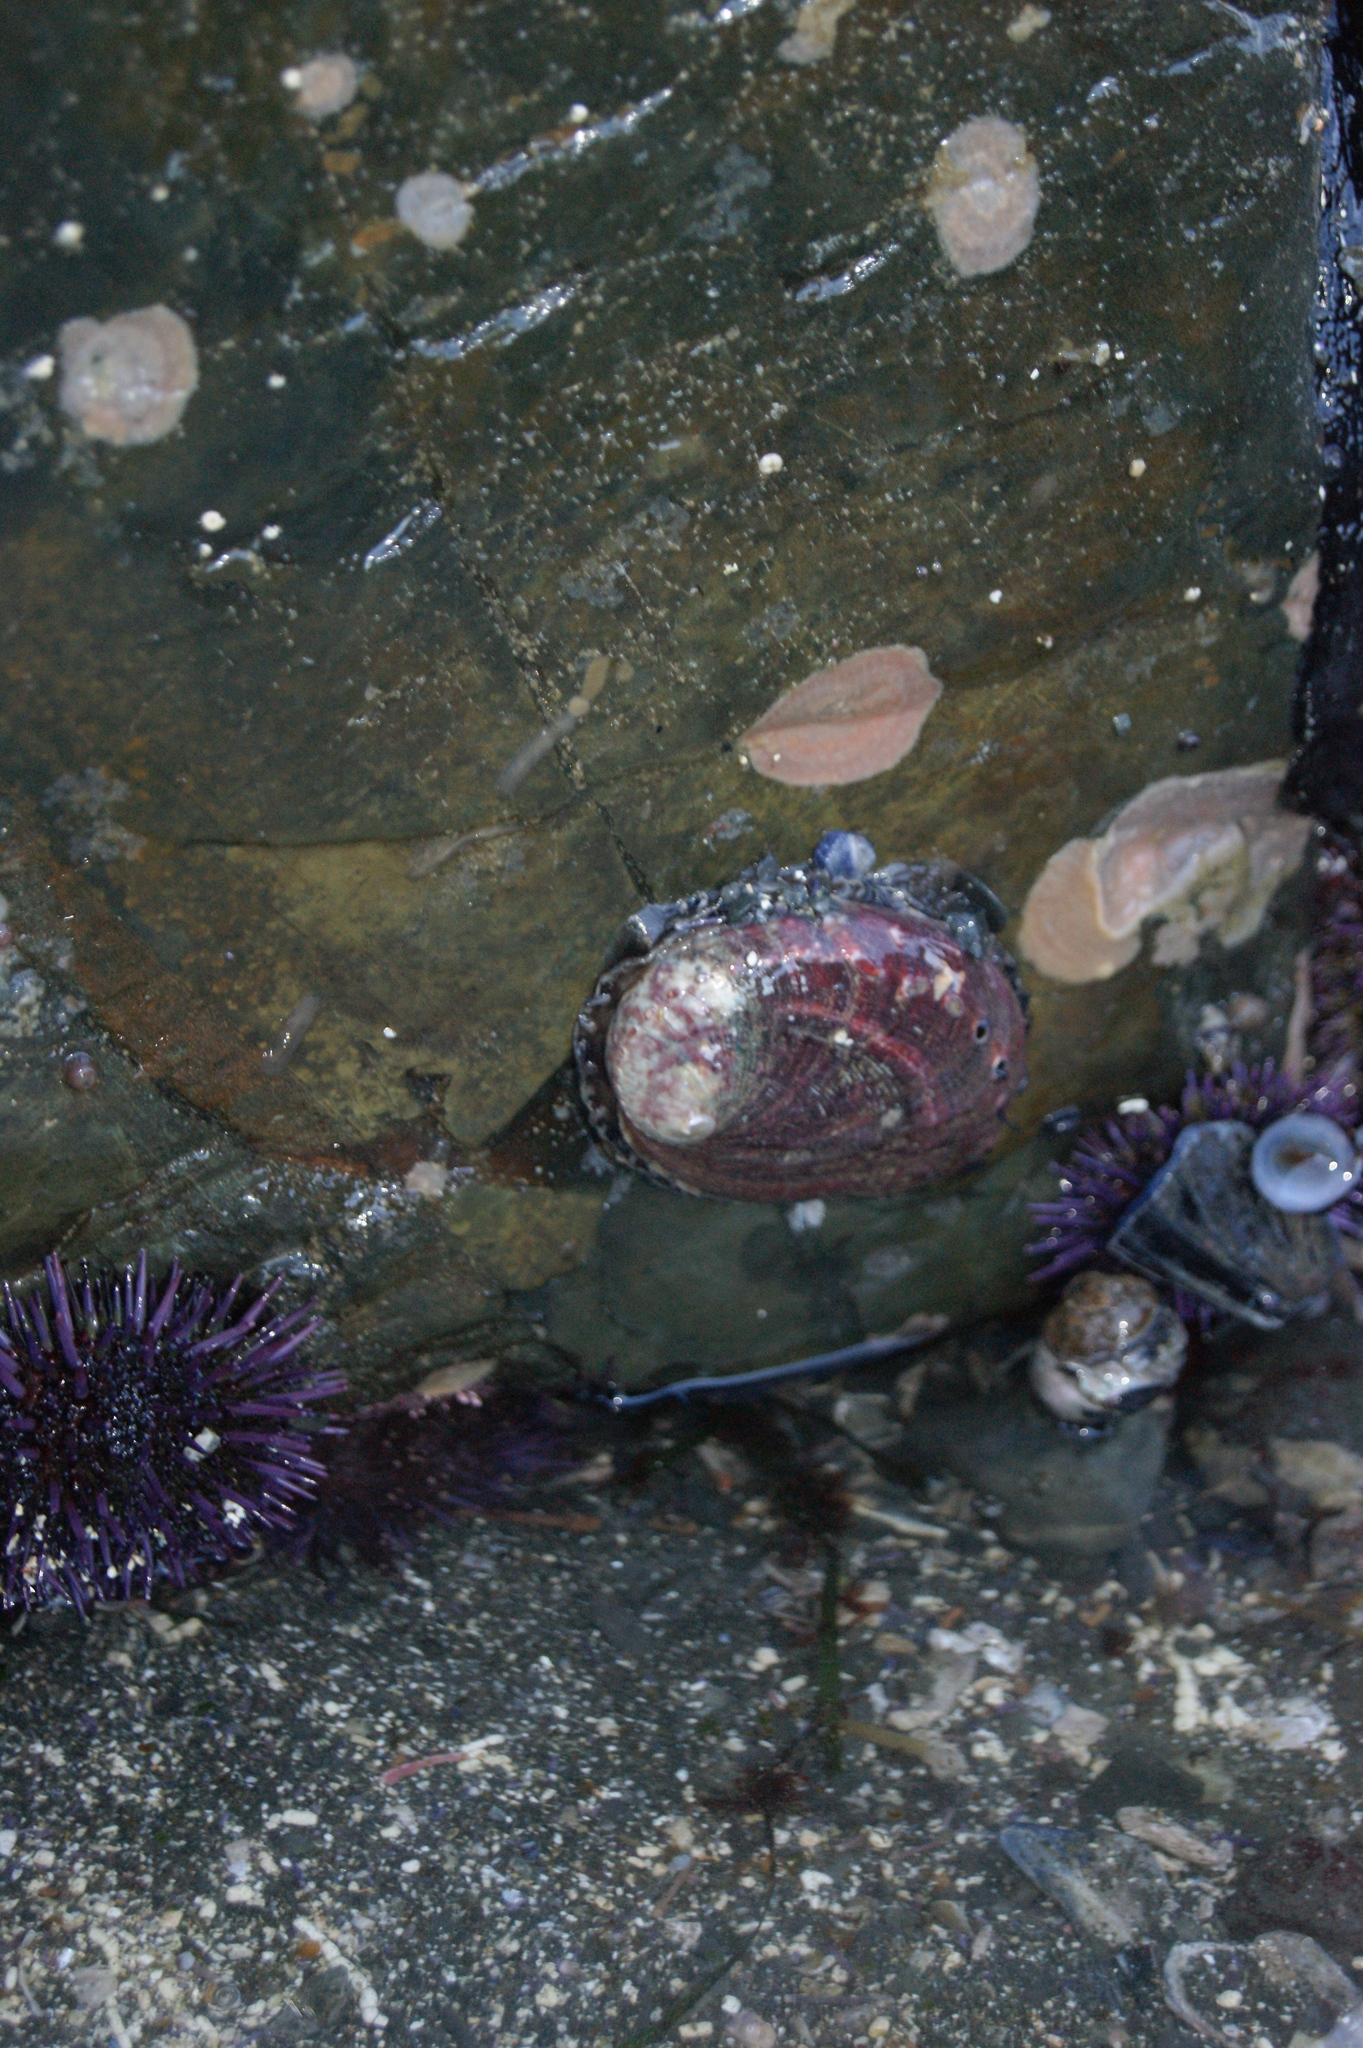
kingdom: Animalia
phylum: Mollusca
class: Gastropoda
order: Lepetellida
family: Haliotidae
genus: Haliotis
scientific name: Haliotis rufescens
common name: Red abalone
